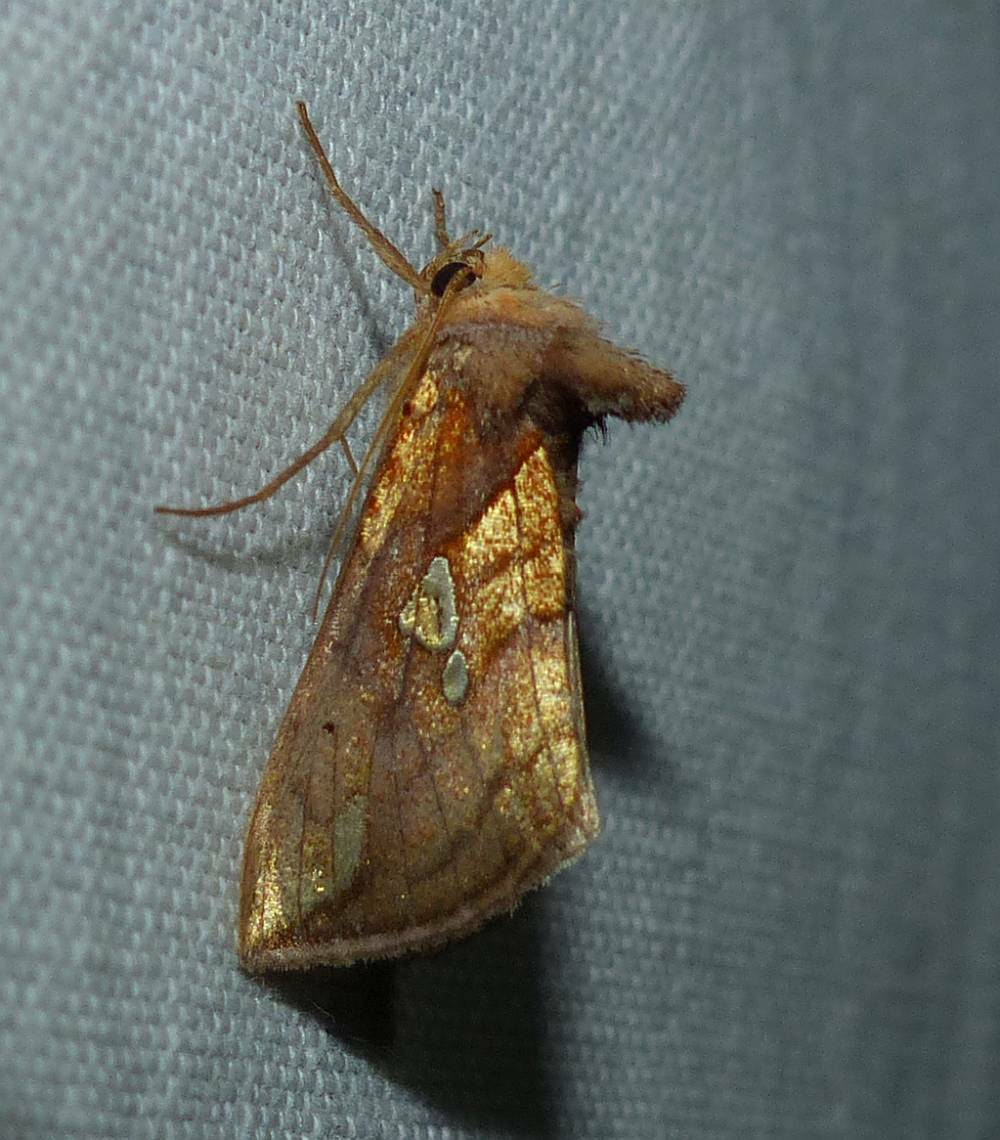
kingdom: Animalia
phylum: Arthropoda
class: Insecta
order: Lepidoptera
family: Noctuidae
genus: Plusia
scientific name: Plusia putnami
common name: Lempke's gold spot
